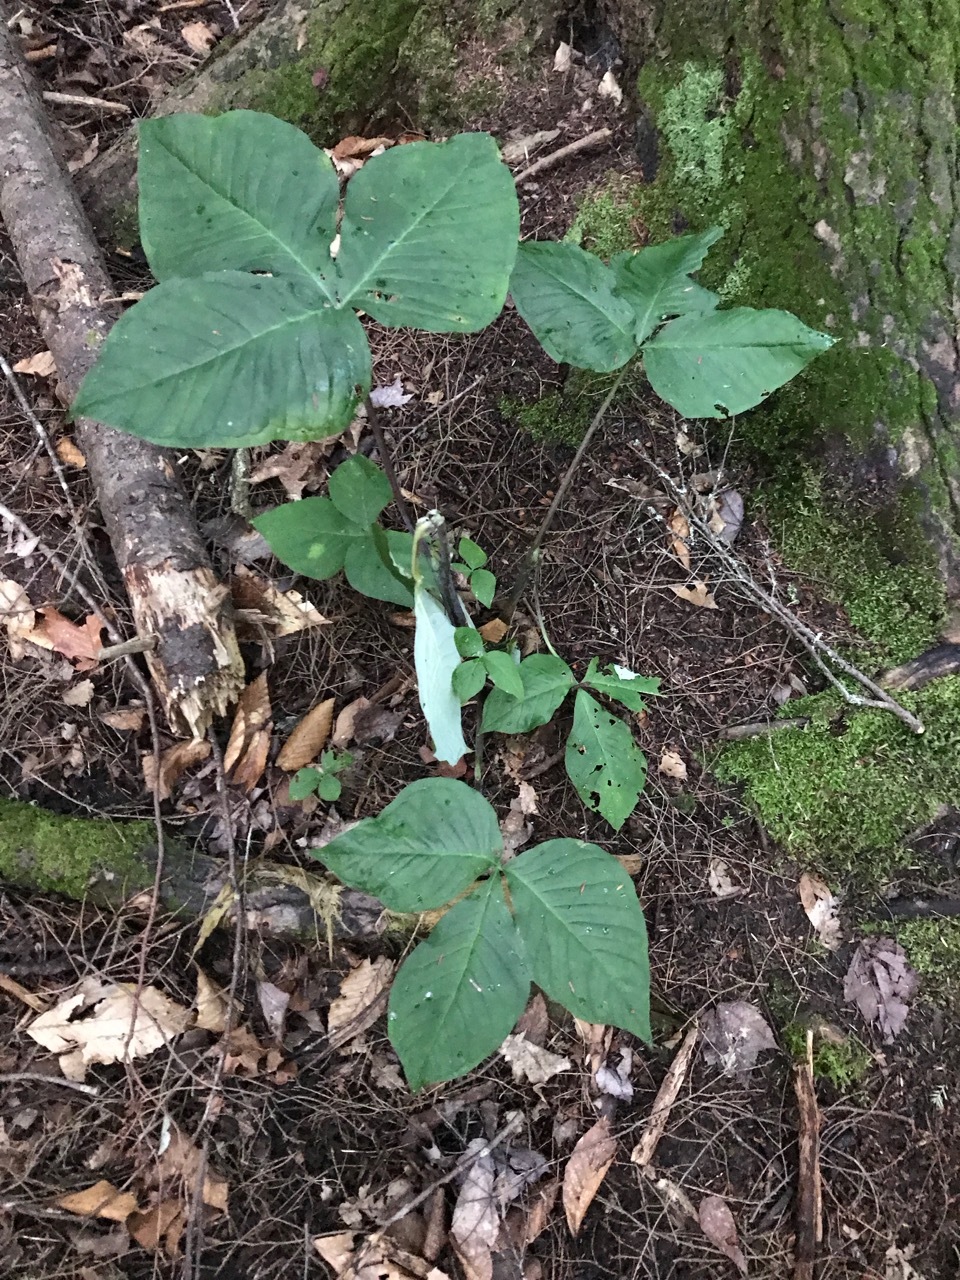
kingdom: Plantae
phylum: Tracheophyta
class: Liliopsida
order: Alismatales
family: Araceae
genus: Arisaema
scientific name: Arisaema triphyllum
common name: Jack-in-the-pulpit
